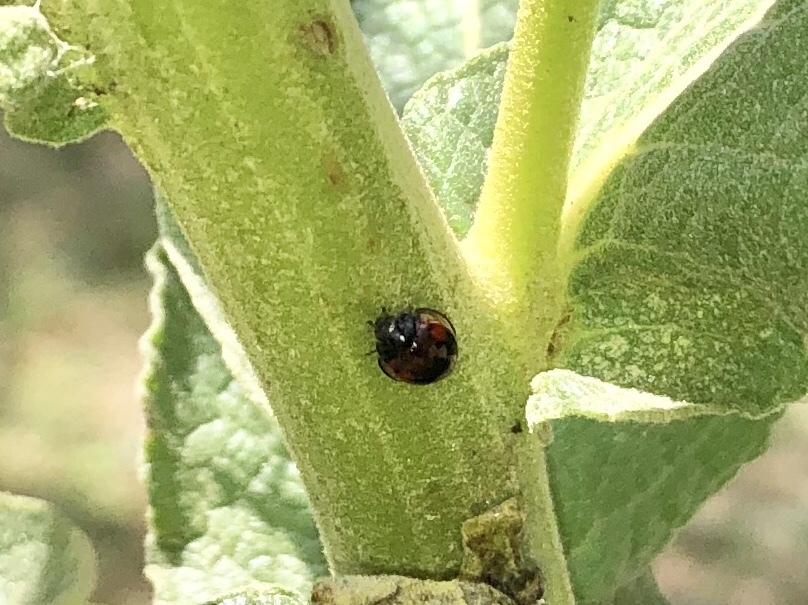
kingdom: Animalia
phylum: Arthropoda
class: Insecta
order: Coleoptera
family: Coccinellidae
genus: Brumus
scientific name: Brumus quadripustulatus
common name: Ladybird beetle
